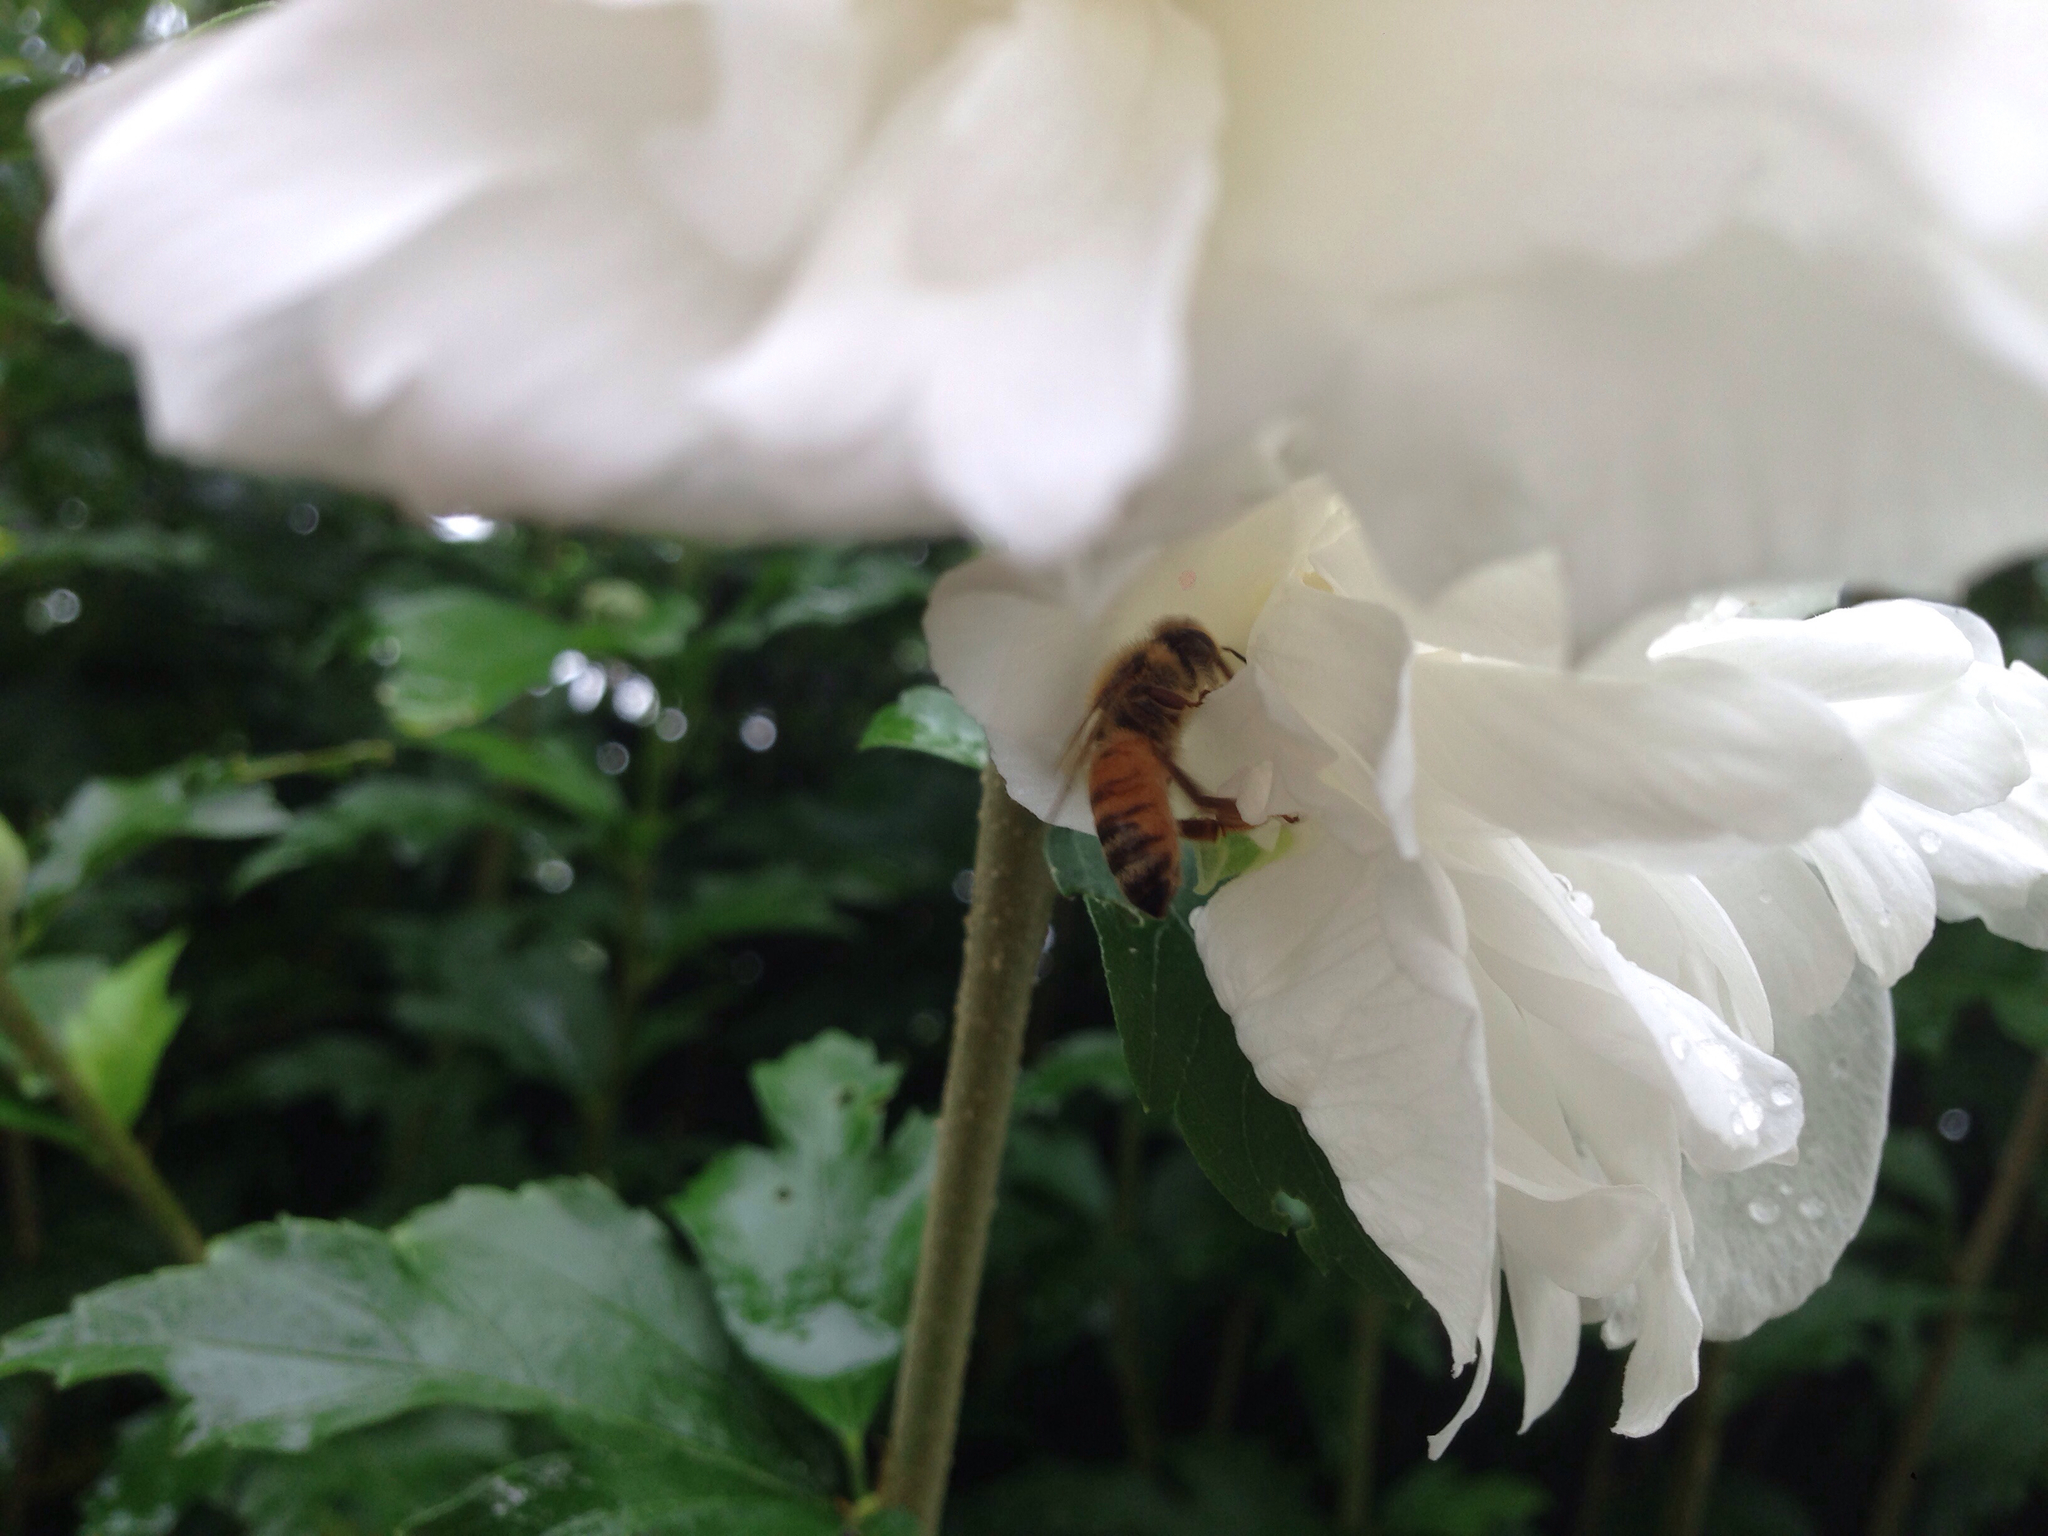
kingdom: Animalia
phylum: Arthropoda
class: Insecta
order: Hymenoptera
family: Apidae
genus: Apis
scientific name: Apis mellifera
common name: Honey bee
